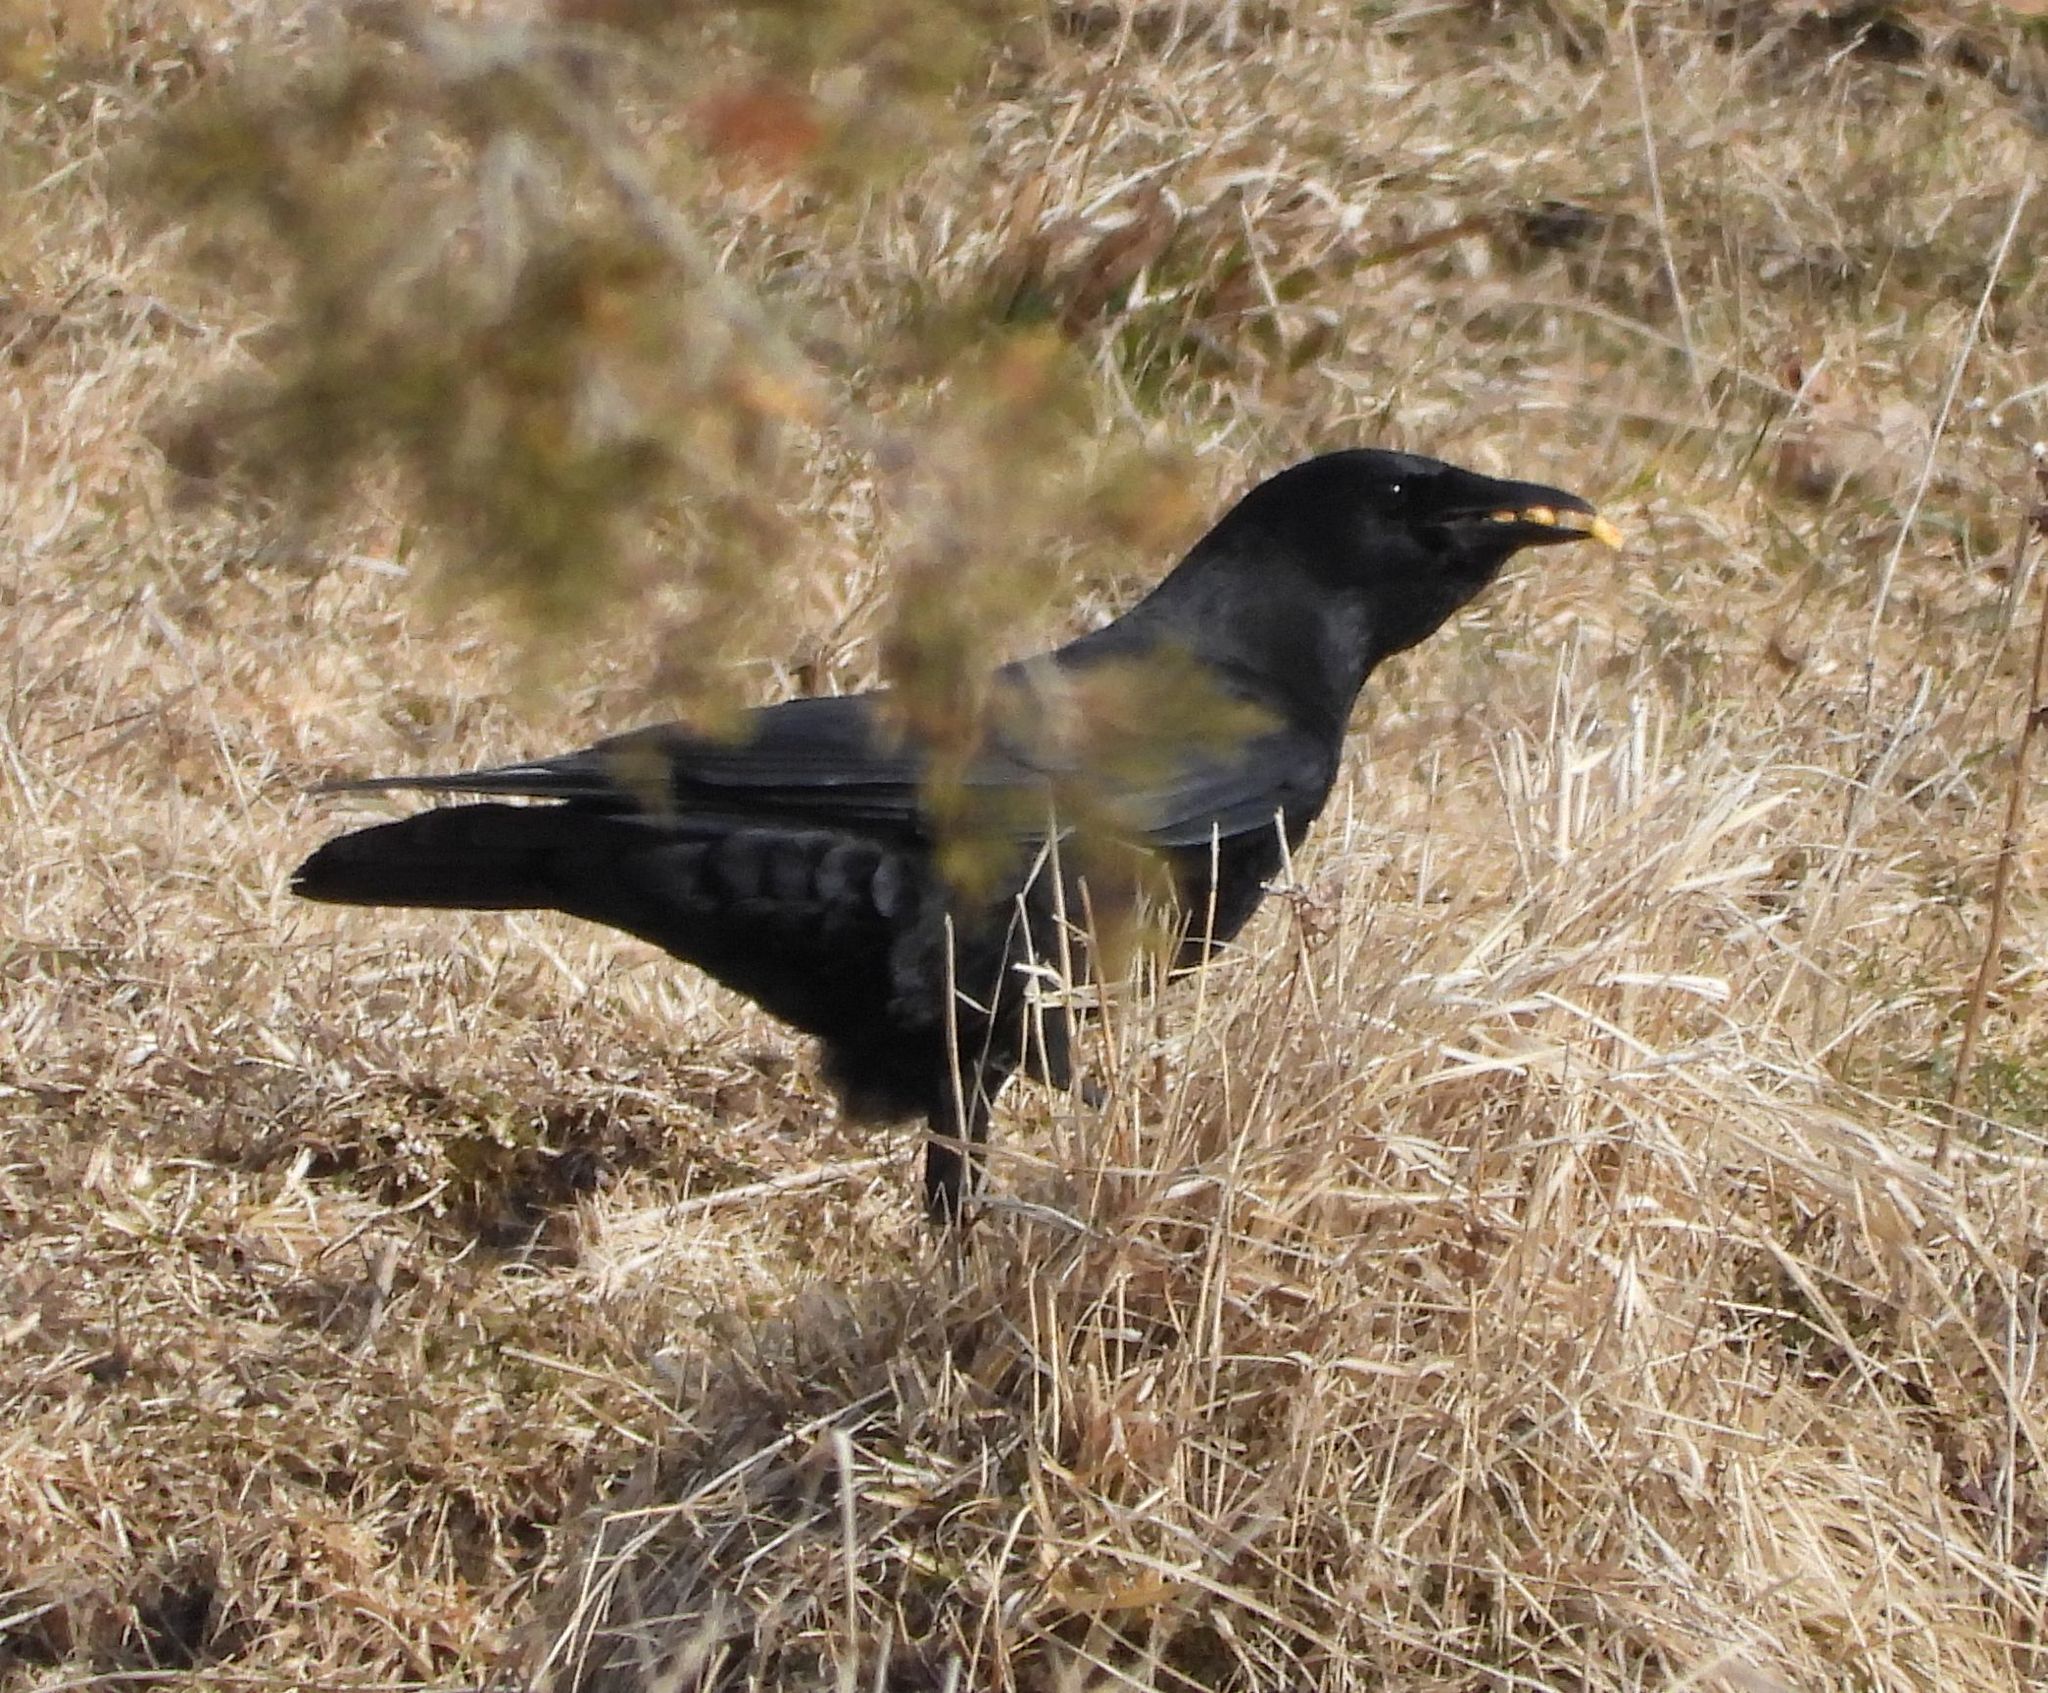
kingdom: Animalia
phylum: Chordata
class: Aves
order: Passeriformes
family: Corvidae
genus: Corvus
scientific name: Corvus corax
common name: Common raven
